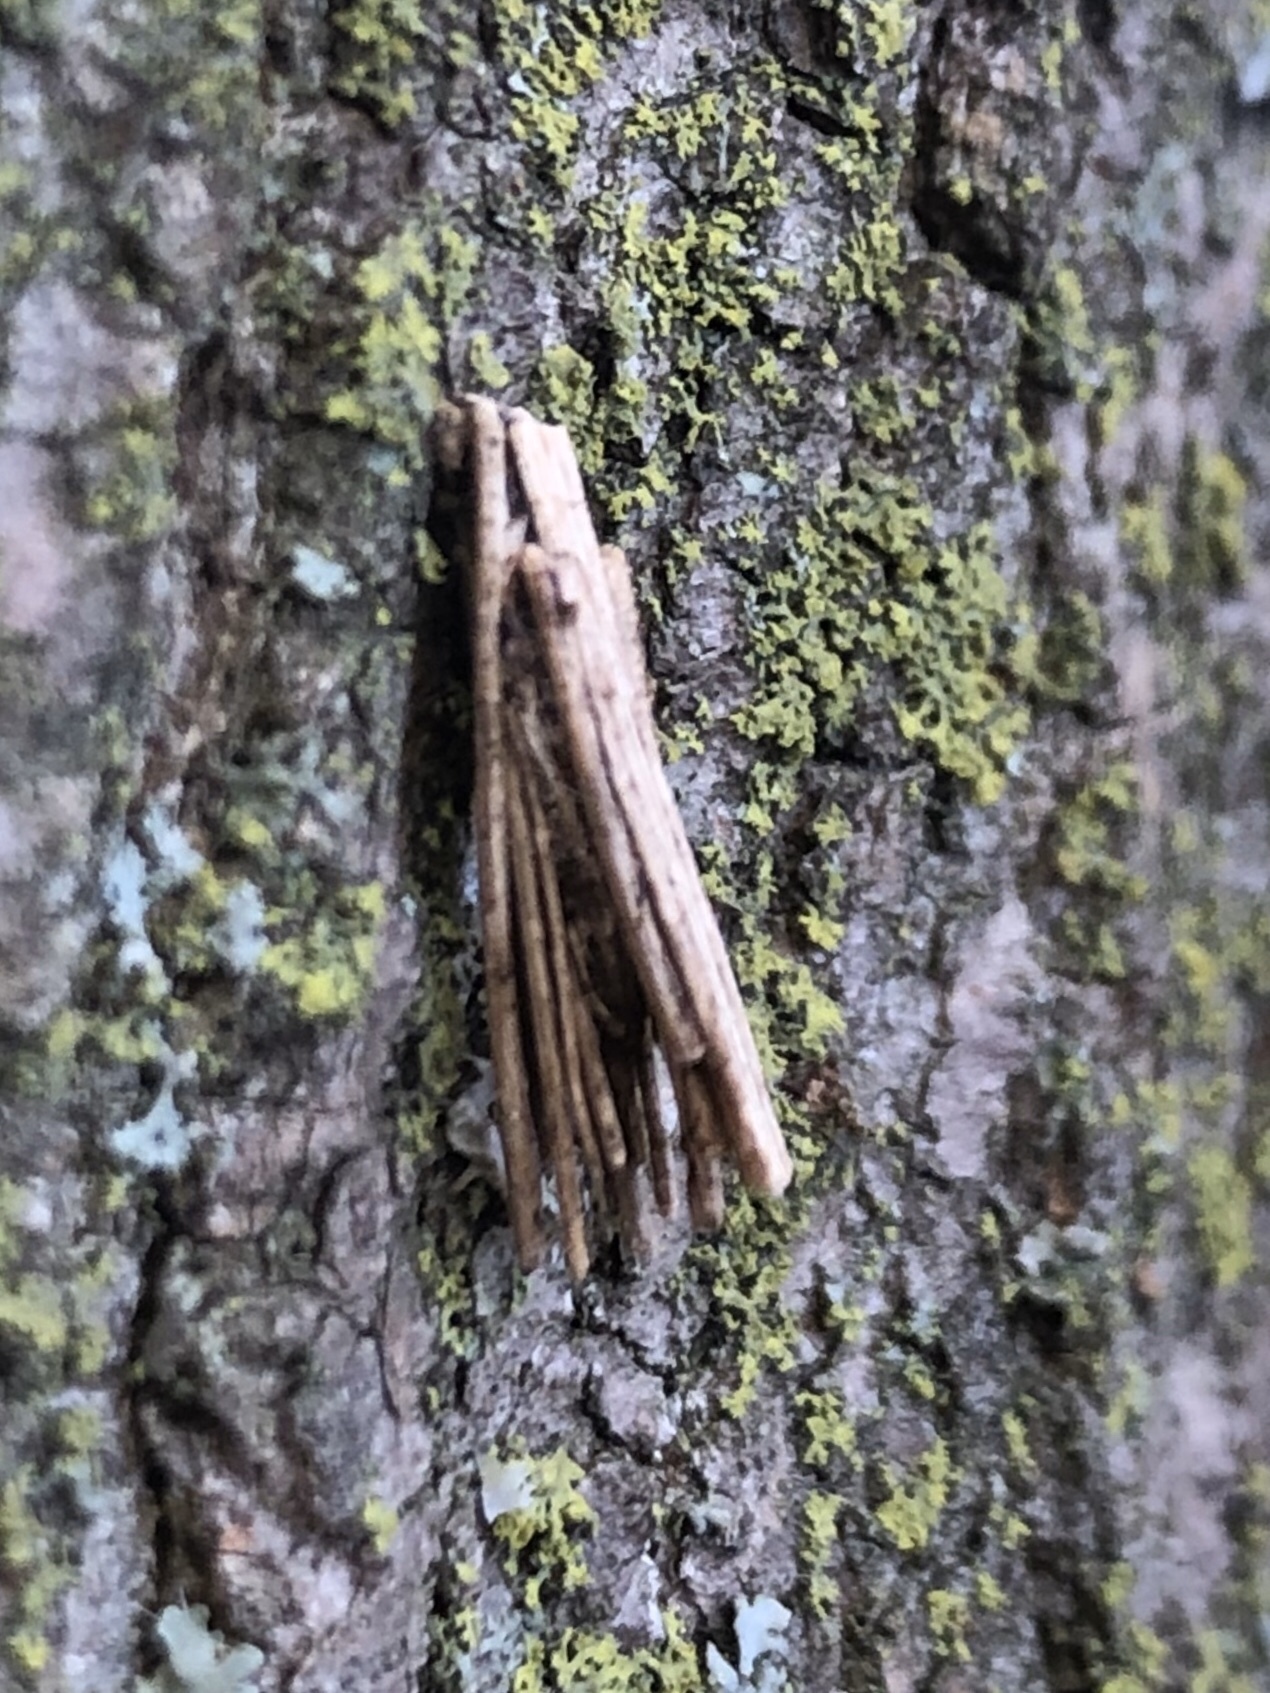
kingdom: Animalia
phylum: Arthropoda
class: Insecta
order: Lepidoptera
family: Psychidae
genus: Psyche
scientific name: Psyche casta
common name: Common sweep
